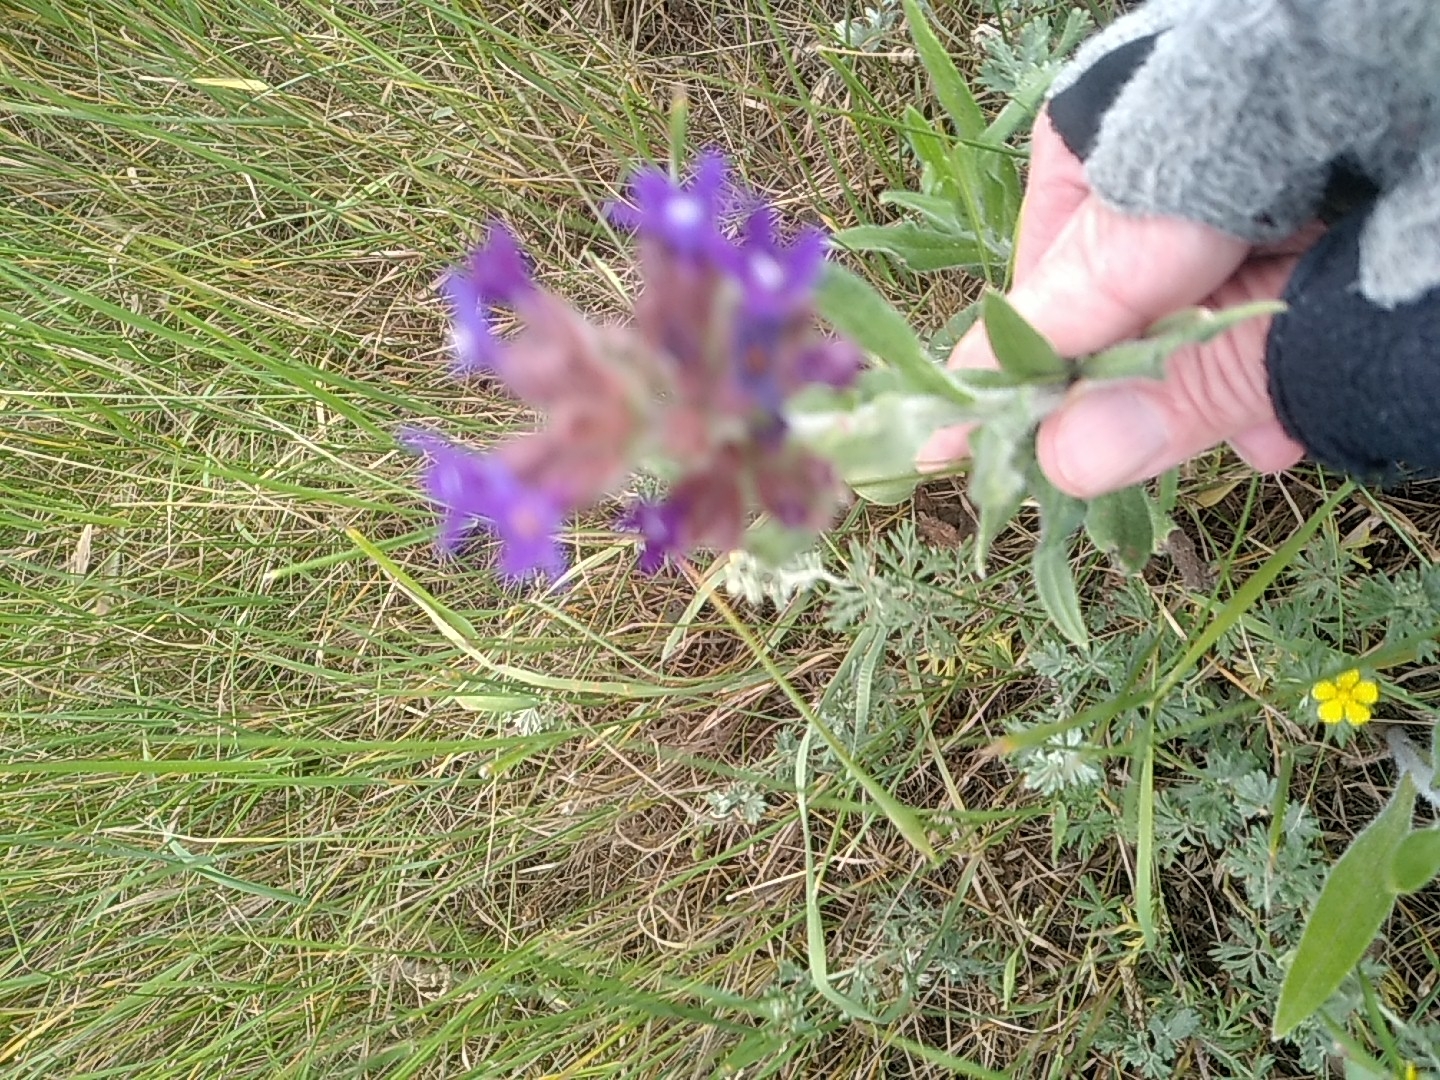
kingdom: Plantae
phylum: Tracheophyta
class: Magnoliopsida
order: Boraginales
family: Boraginaceae
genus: Anchusa
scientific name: Anchusa officinalis
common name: Alkanet
